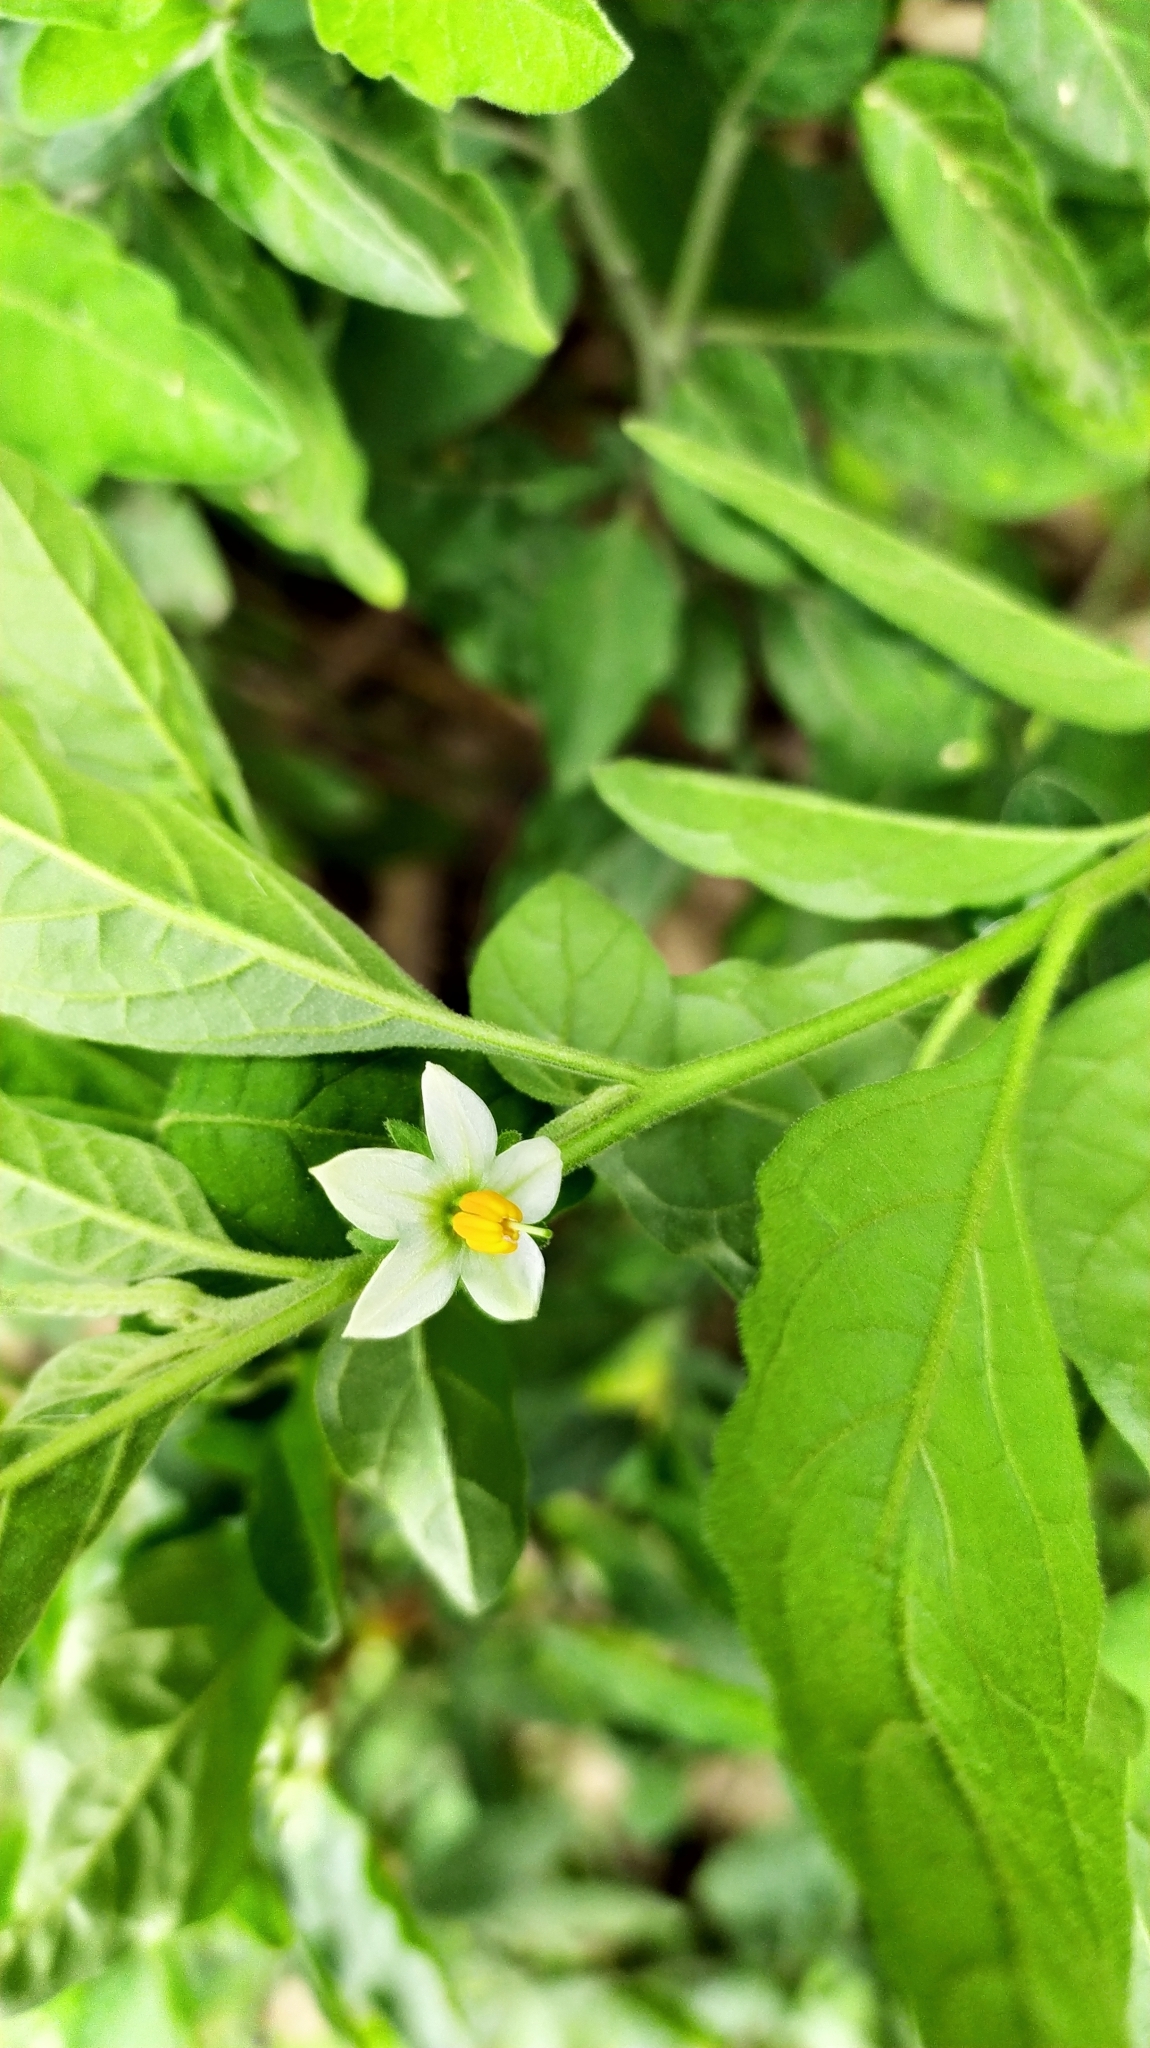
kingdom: Plantae
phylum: Tracheophyta
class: Magnoliopsida
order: Solanales
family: Solanaceae
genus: Solanum
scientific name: Solanum pseudocapsicum
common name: Jerusalem cherry
